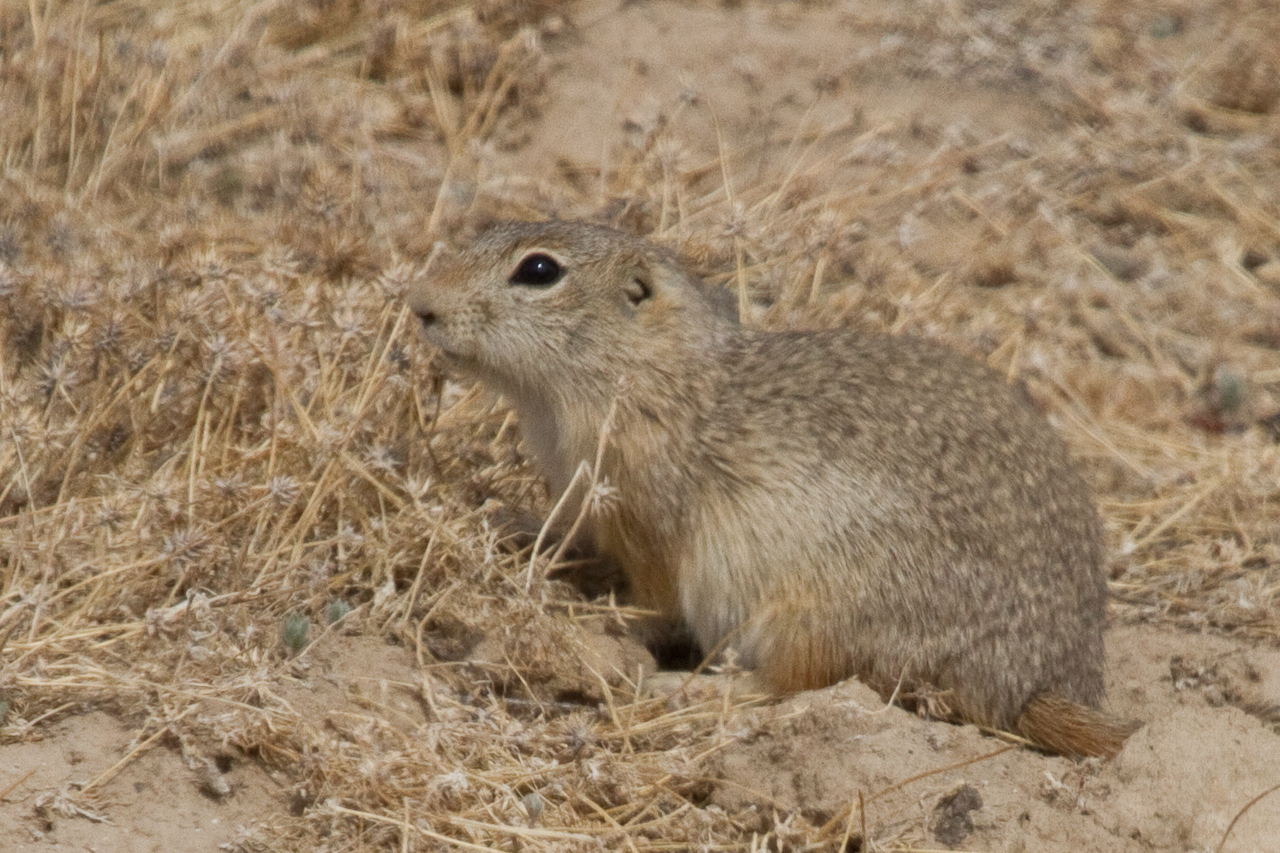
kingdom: Animalia
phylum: Chordata
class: Mammalia
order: Rodentia
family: Sciuridae
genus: Urocitellus
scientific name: Urocitellus mollis
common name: Piute ground squirrel
